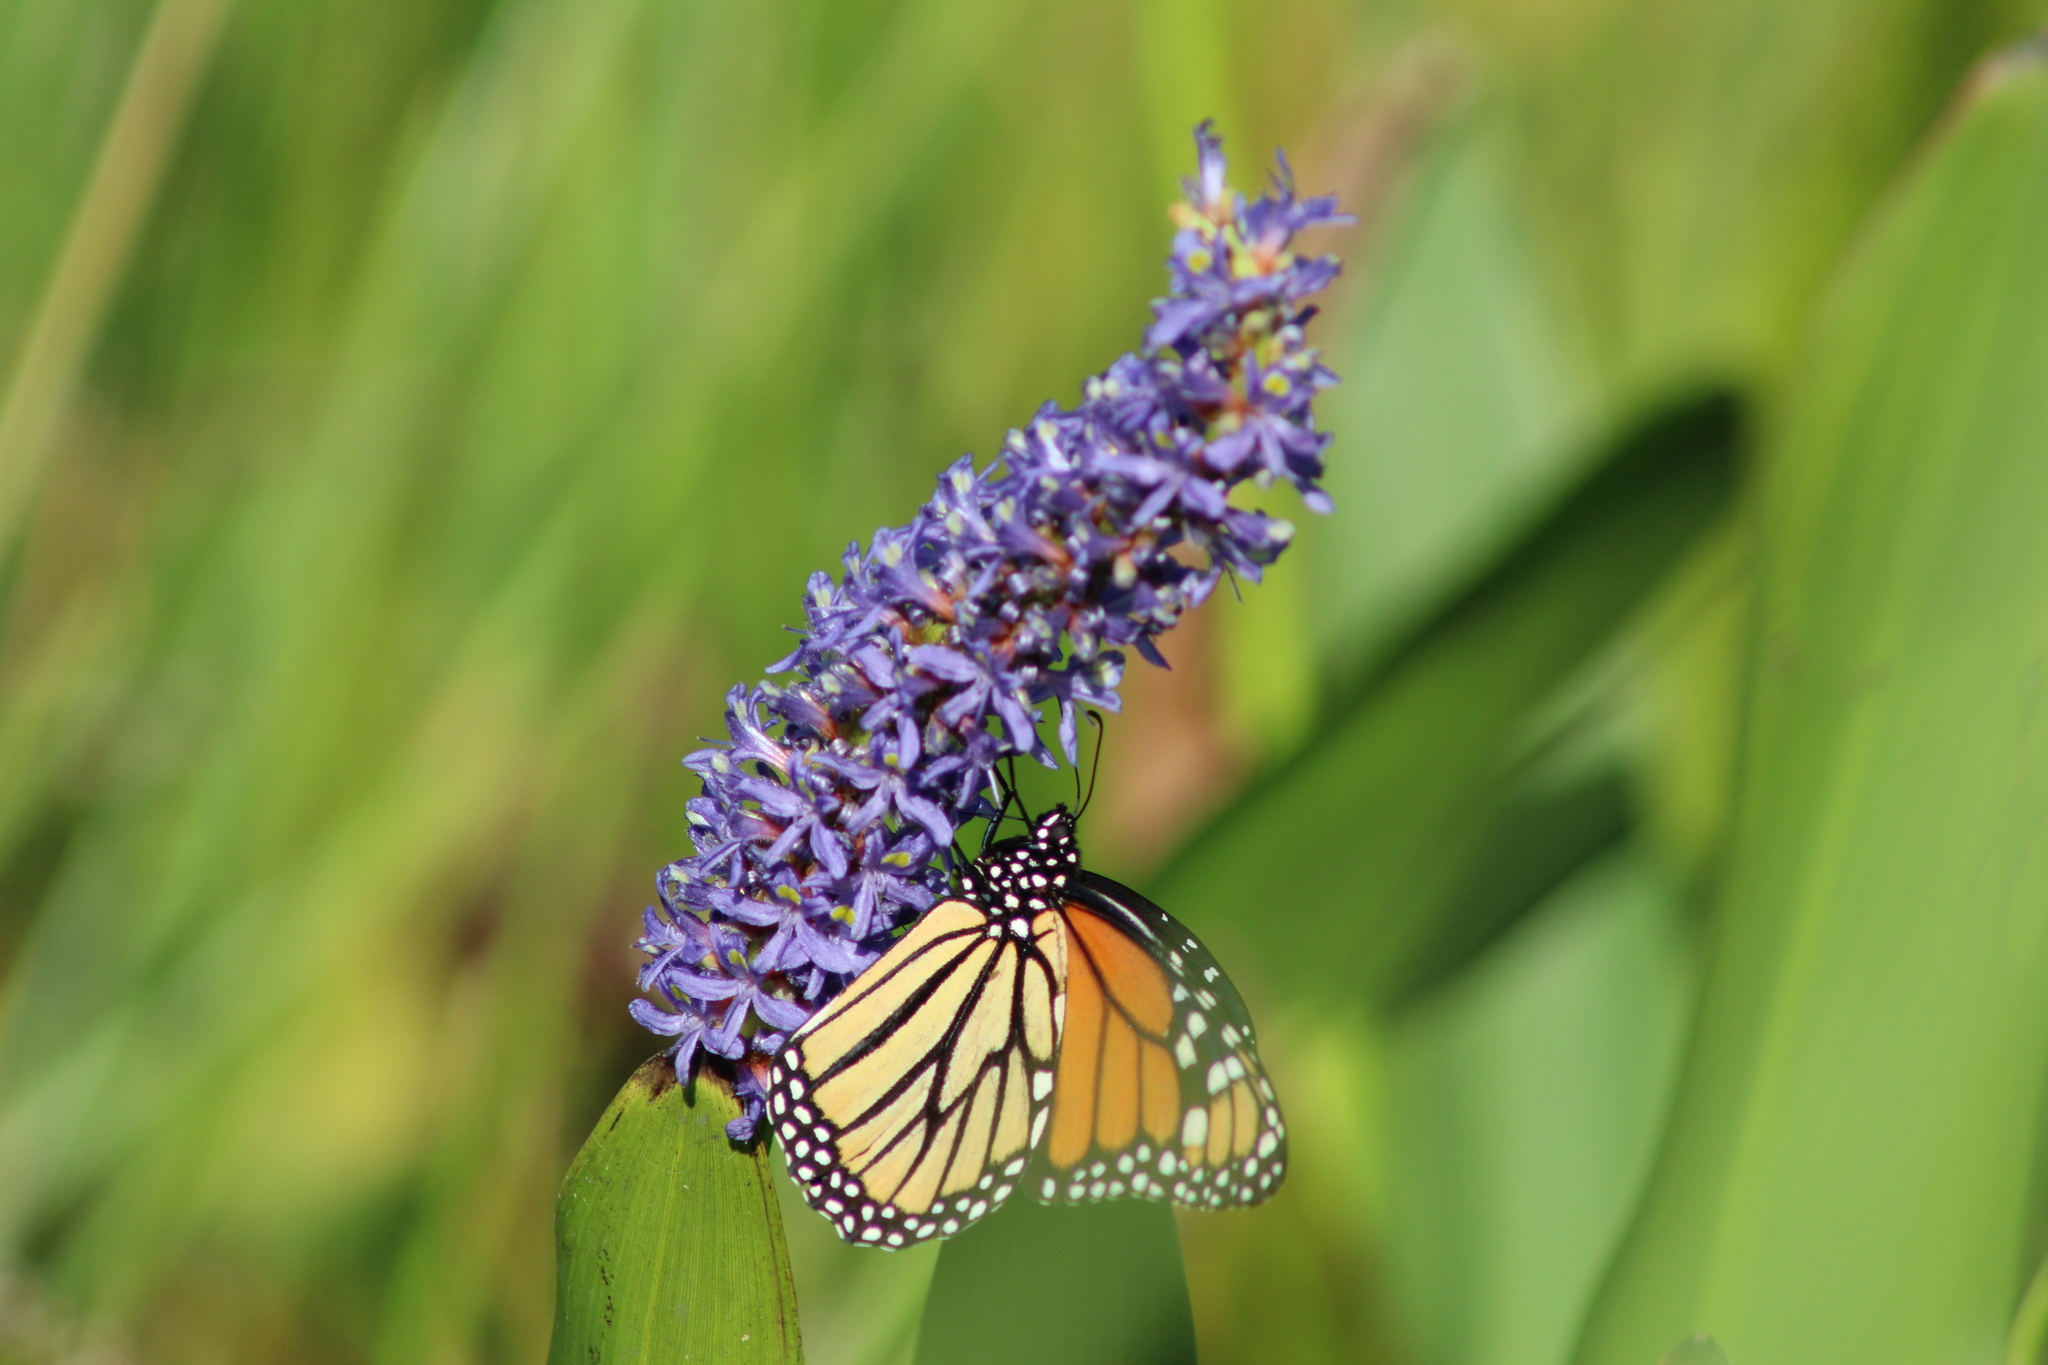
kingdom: Plantae
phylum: Tracheophyta
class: Liliopsida
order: Commelinales
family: Pontederiaceae
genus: Pontederia
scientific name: Pontederia cordata
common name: Pickerelweed
